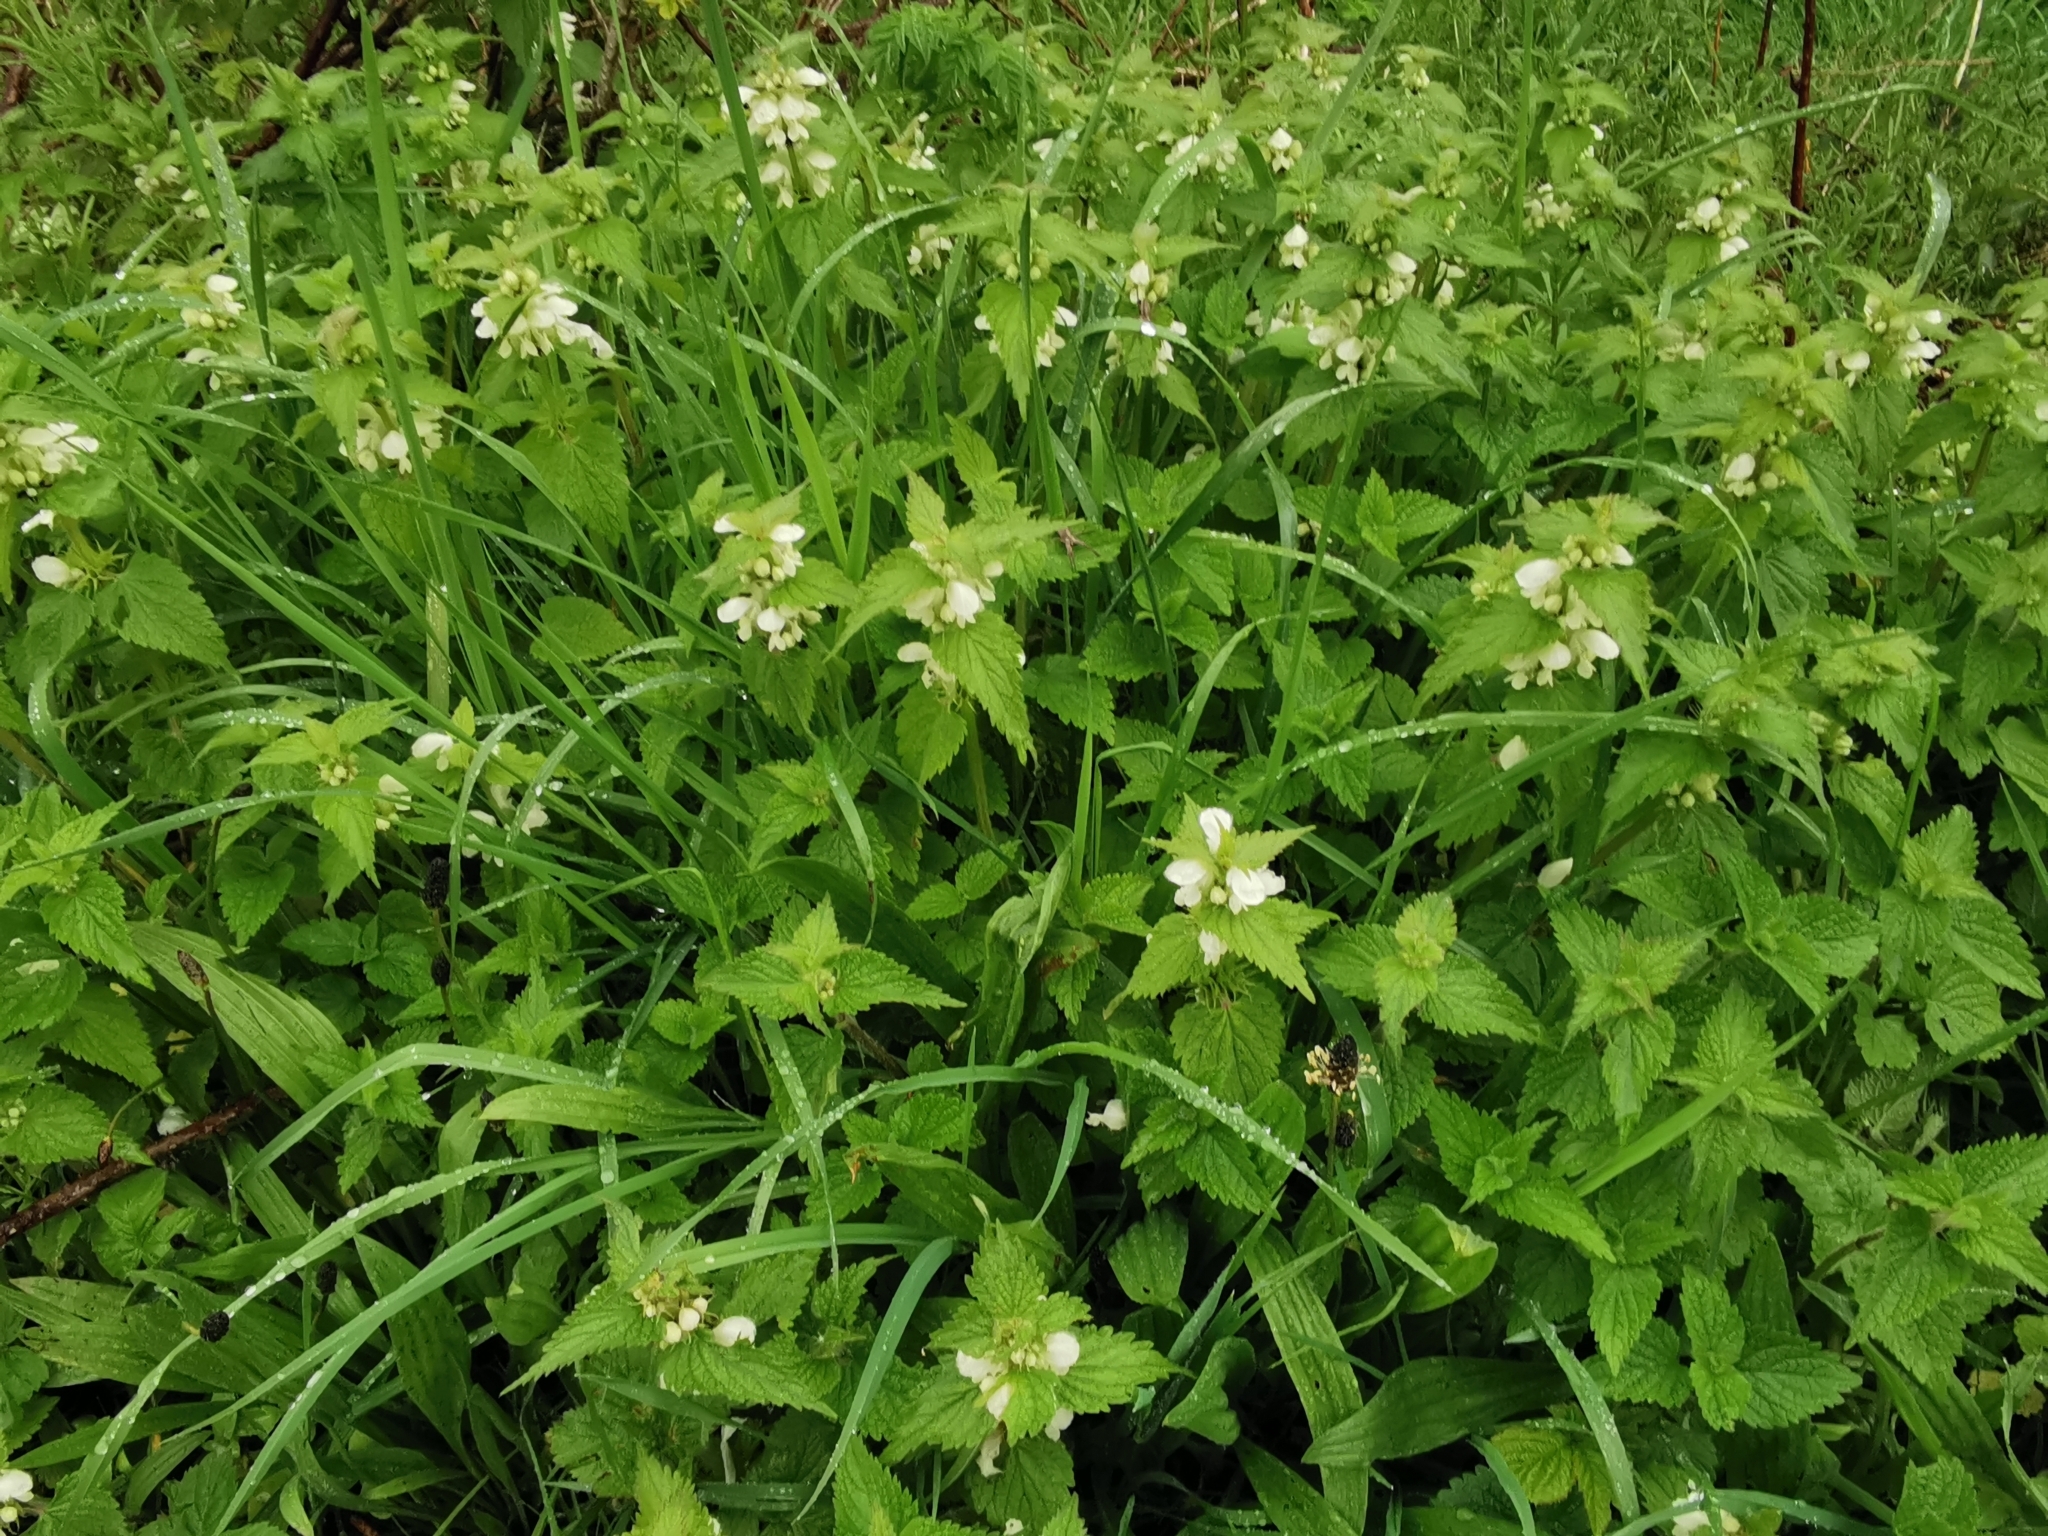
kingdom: Plantae
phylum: Tracheophyta
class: Magnoliopsida
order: Lamiales
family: Lamiaceae
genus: Lamium
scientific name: Lamium album
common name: White dead-nettle
